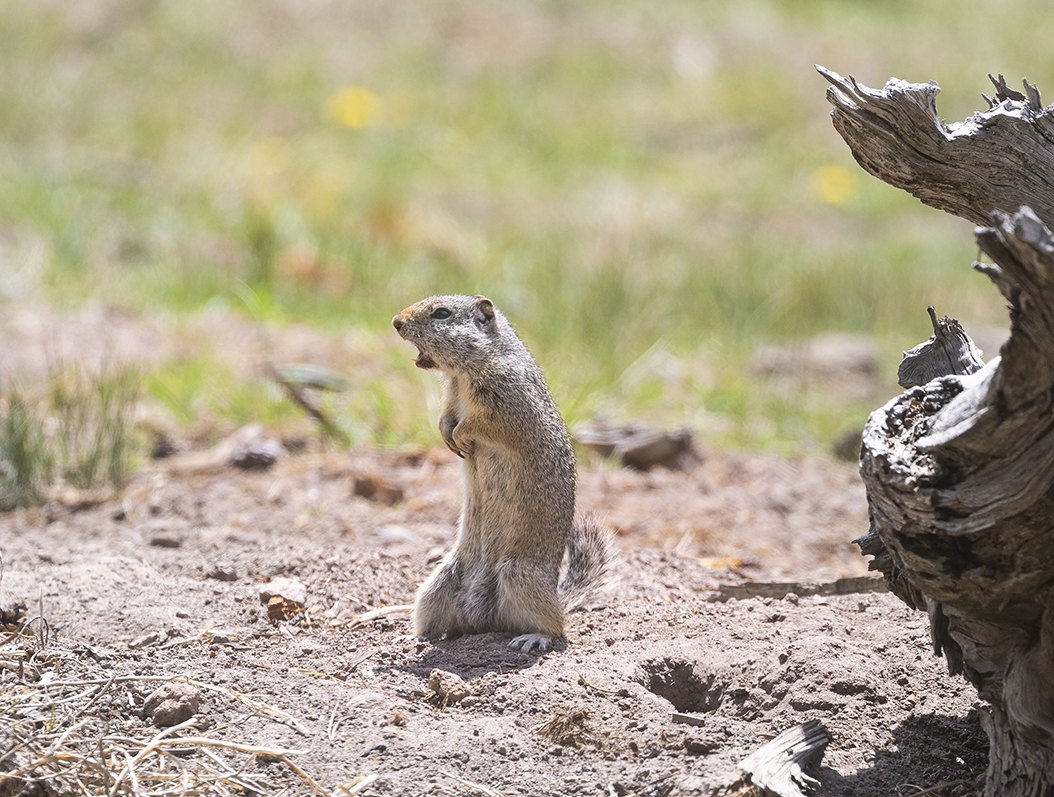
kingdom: Animalia
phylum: Chordata
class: Mammalia
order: Rodentia
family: Sciuridae
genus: Urocitellus
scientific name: Urocitellus armatus
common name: Uinta ground squirrel
